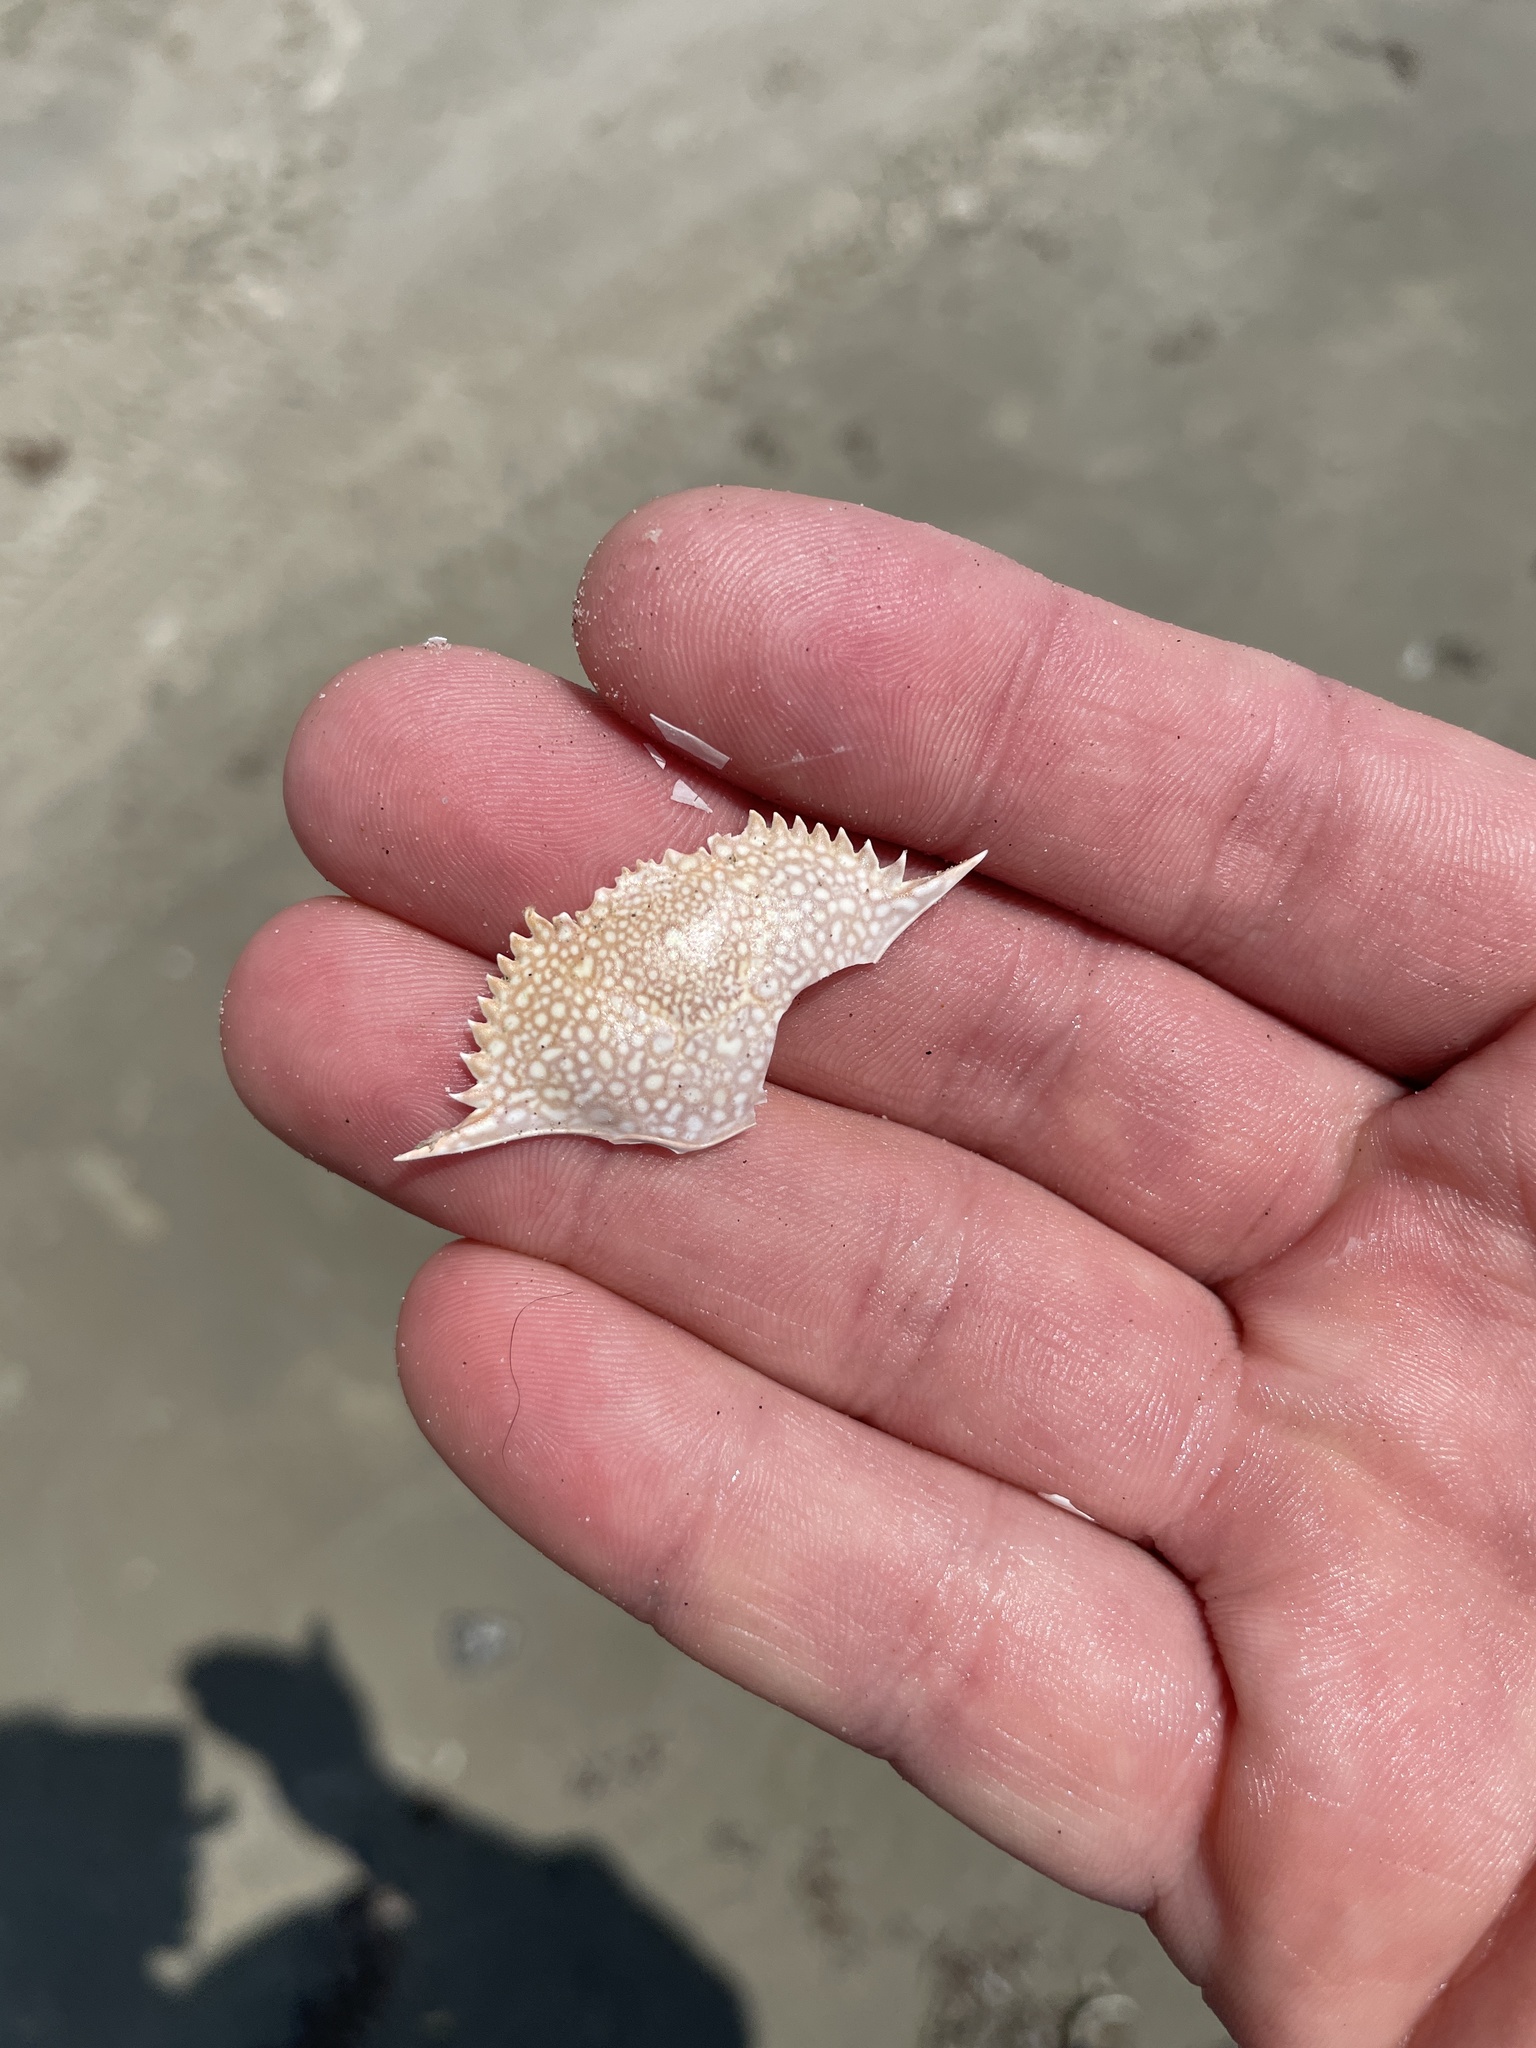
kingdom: Animalia
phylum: Arthropoda
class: Malacostraca
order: Decapoda
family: Portunidae
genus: Arenaeus
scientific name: Arenaeus cribrarius
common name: Speckled crab
